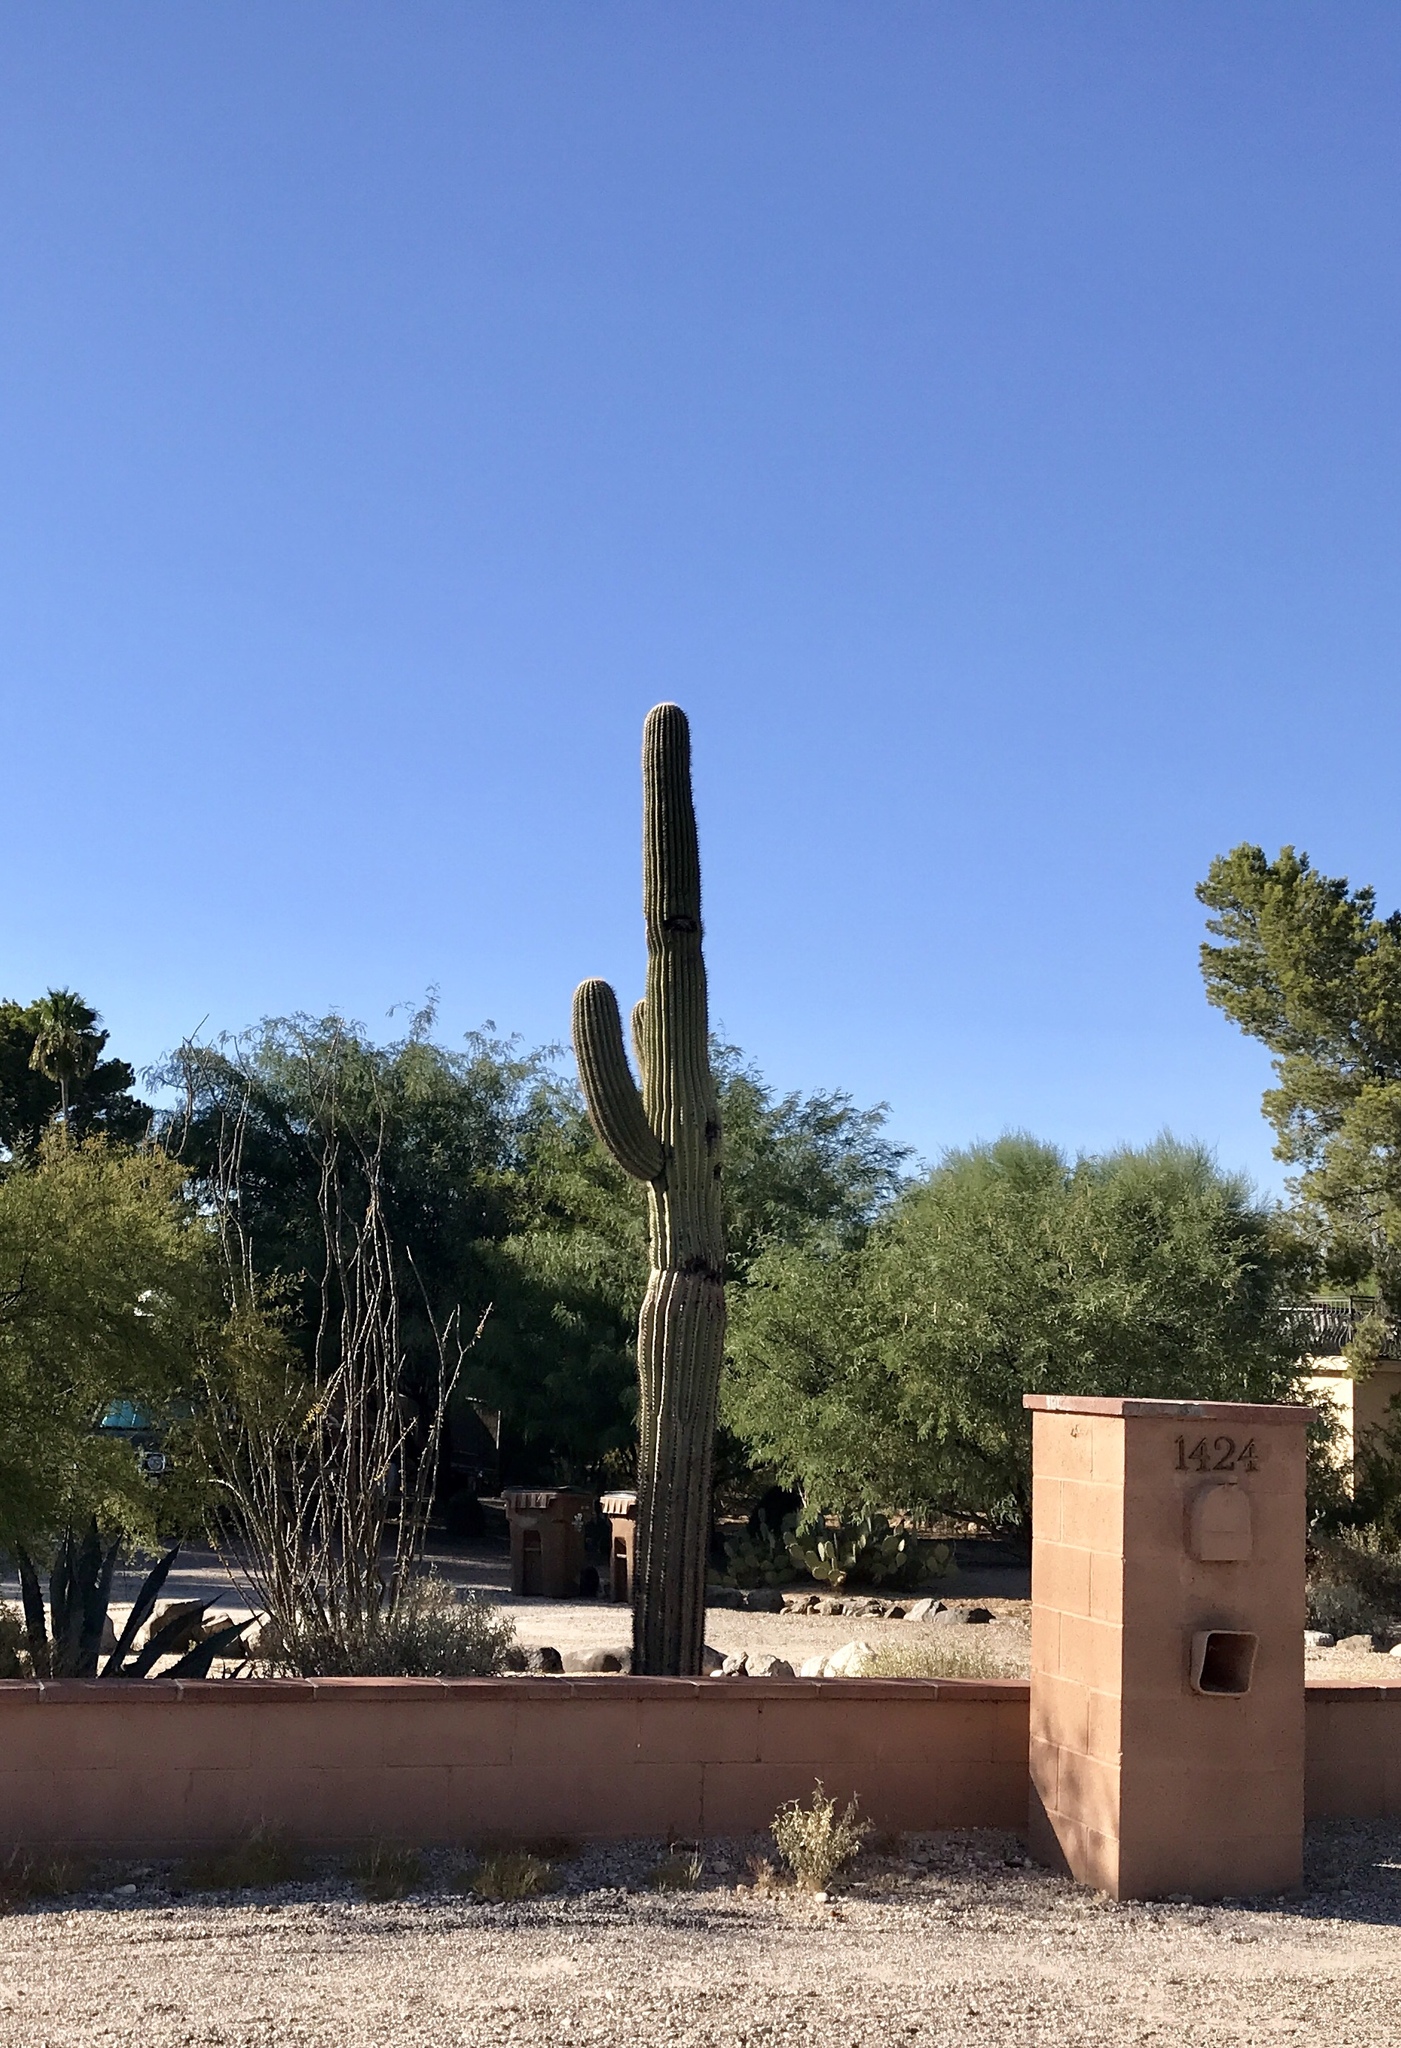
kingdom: Plantae
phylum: Tracheophyta
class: Magnoliopsida
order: Caryophyllales
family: Cactaceae
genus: Carnegiea
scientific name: Carnegiea gigantea
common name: Saguaro
